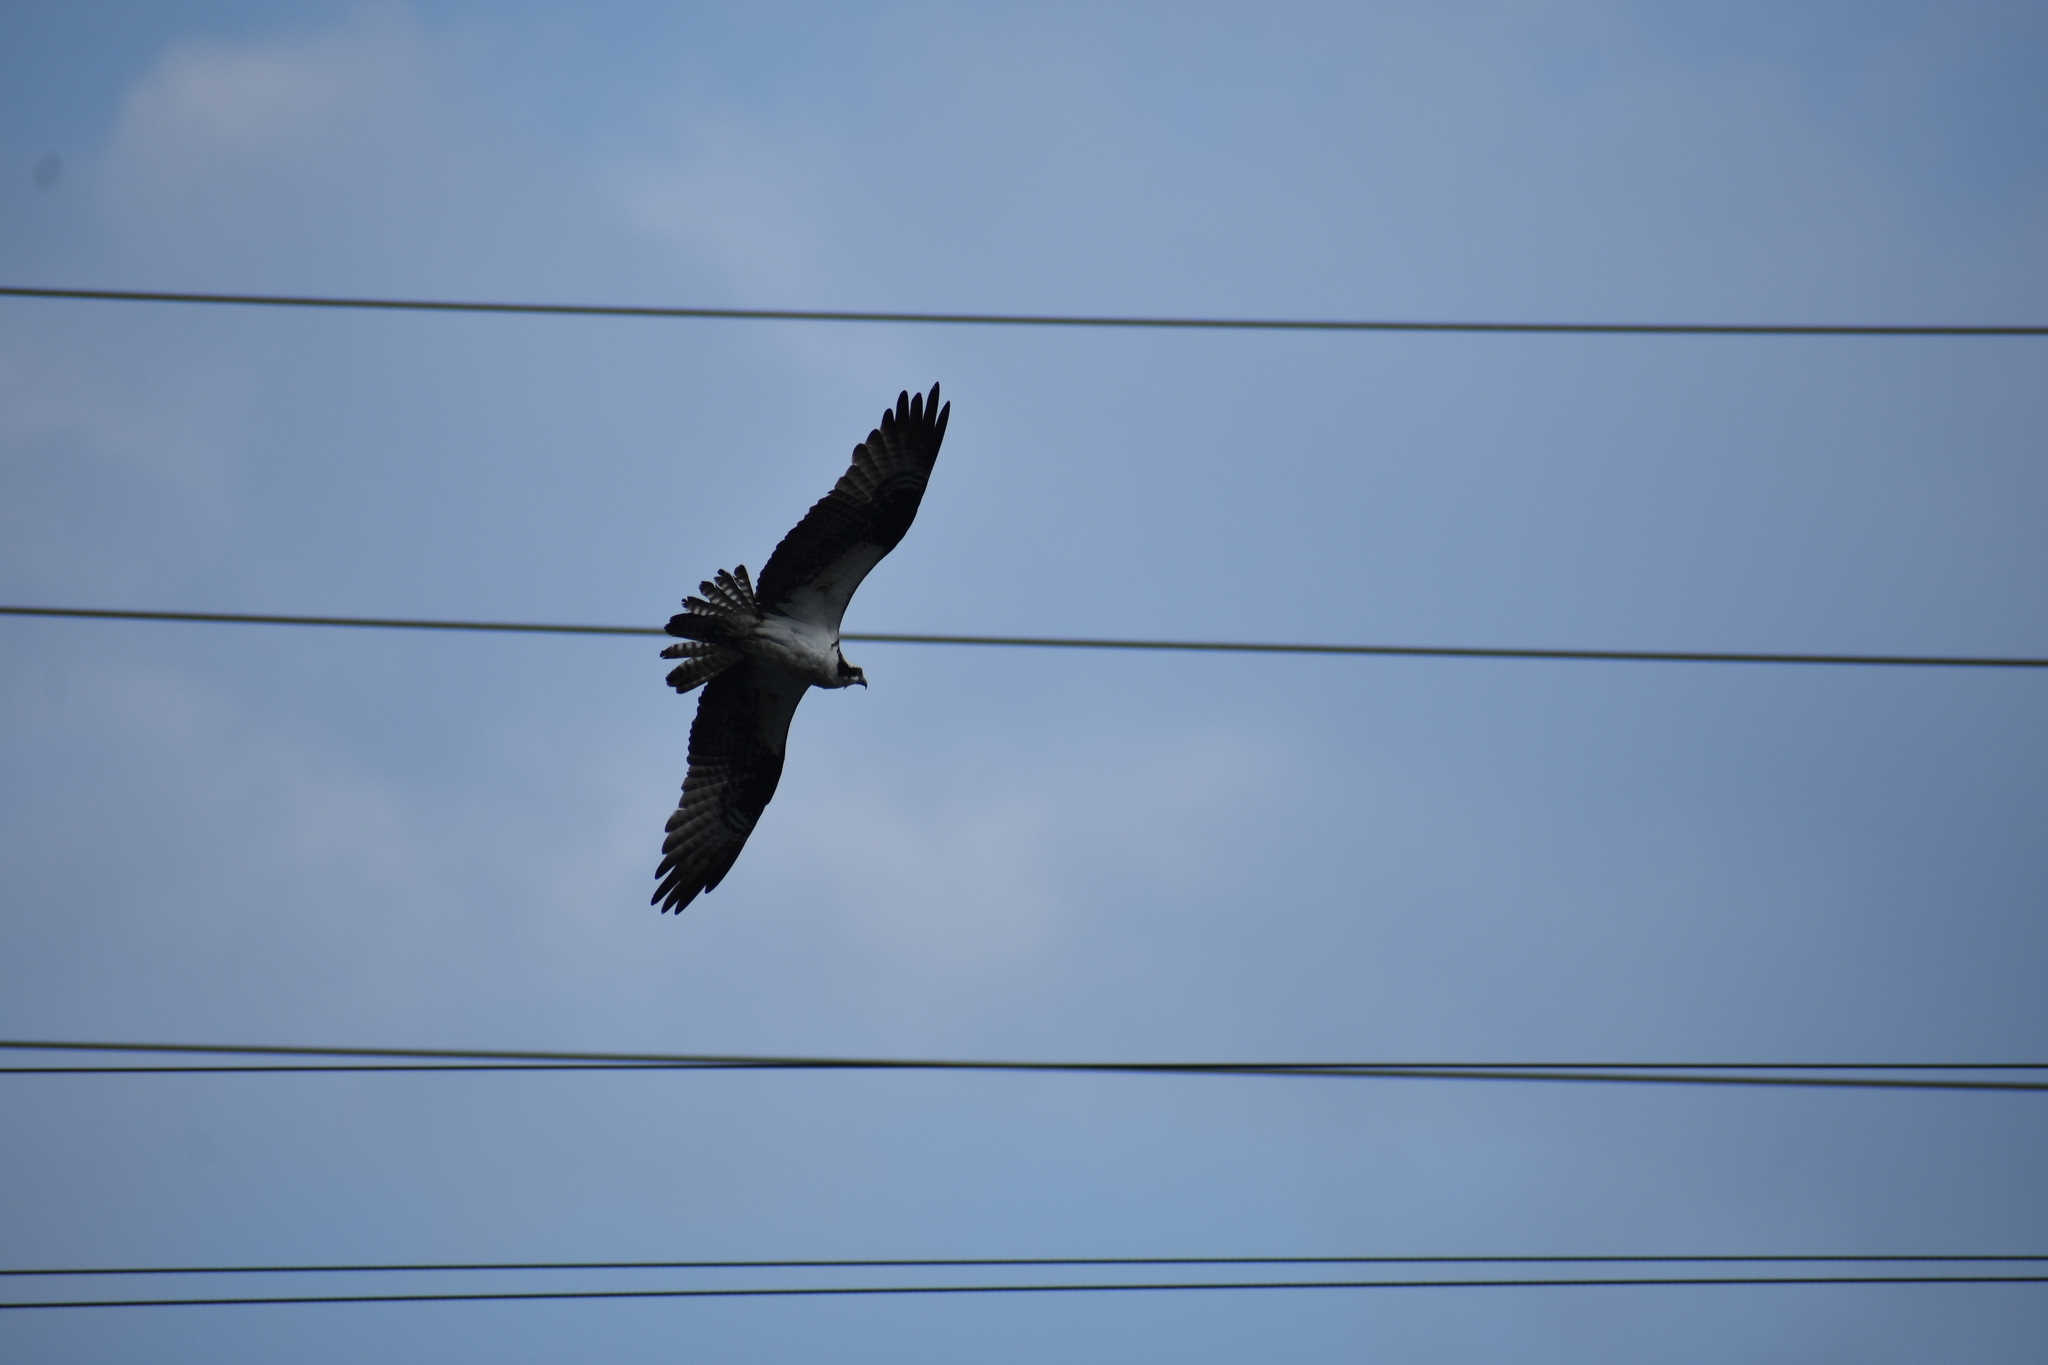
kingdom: Animalia
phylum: Chordata
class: Aves
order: Accipitriformes
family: Pandionidae
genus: Pandion
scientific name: Pandion haliaetus
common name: Osprey
